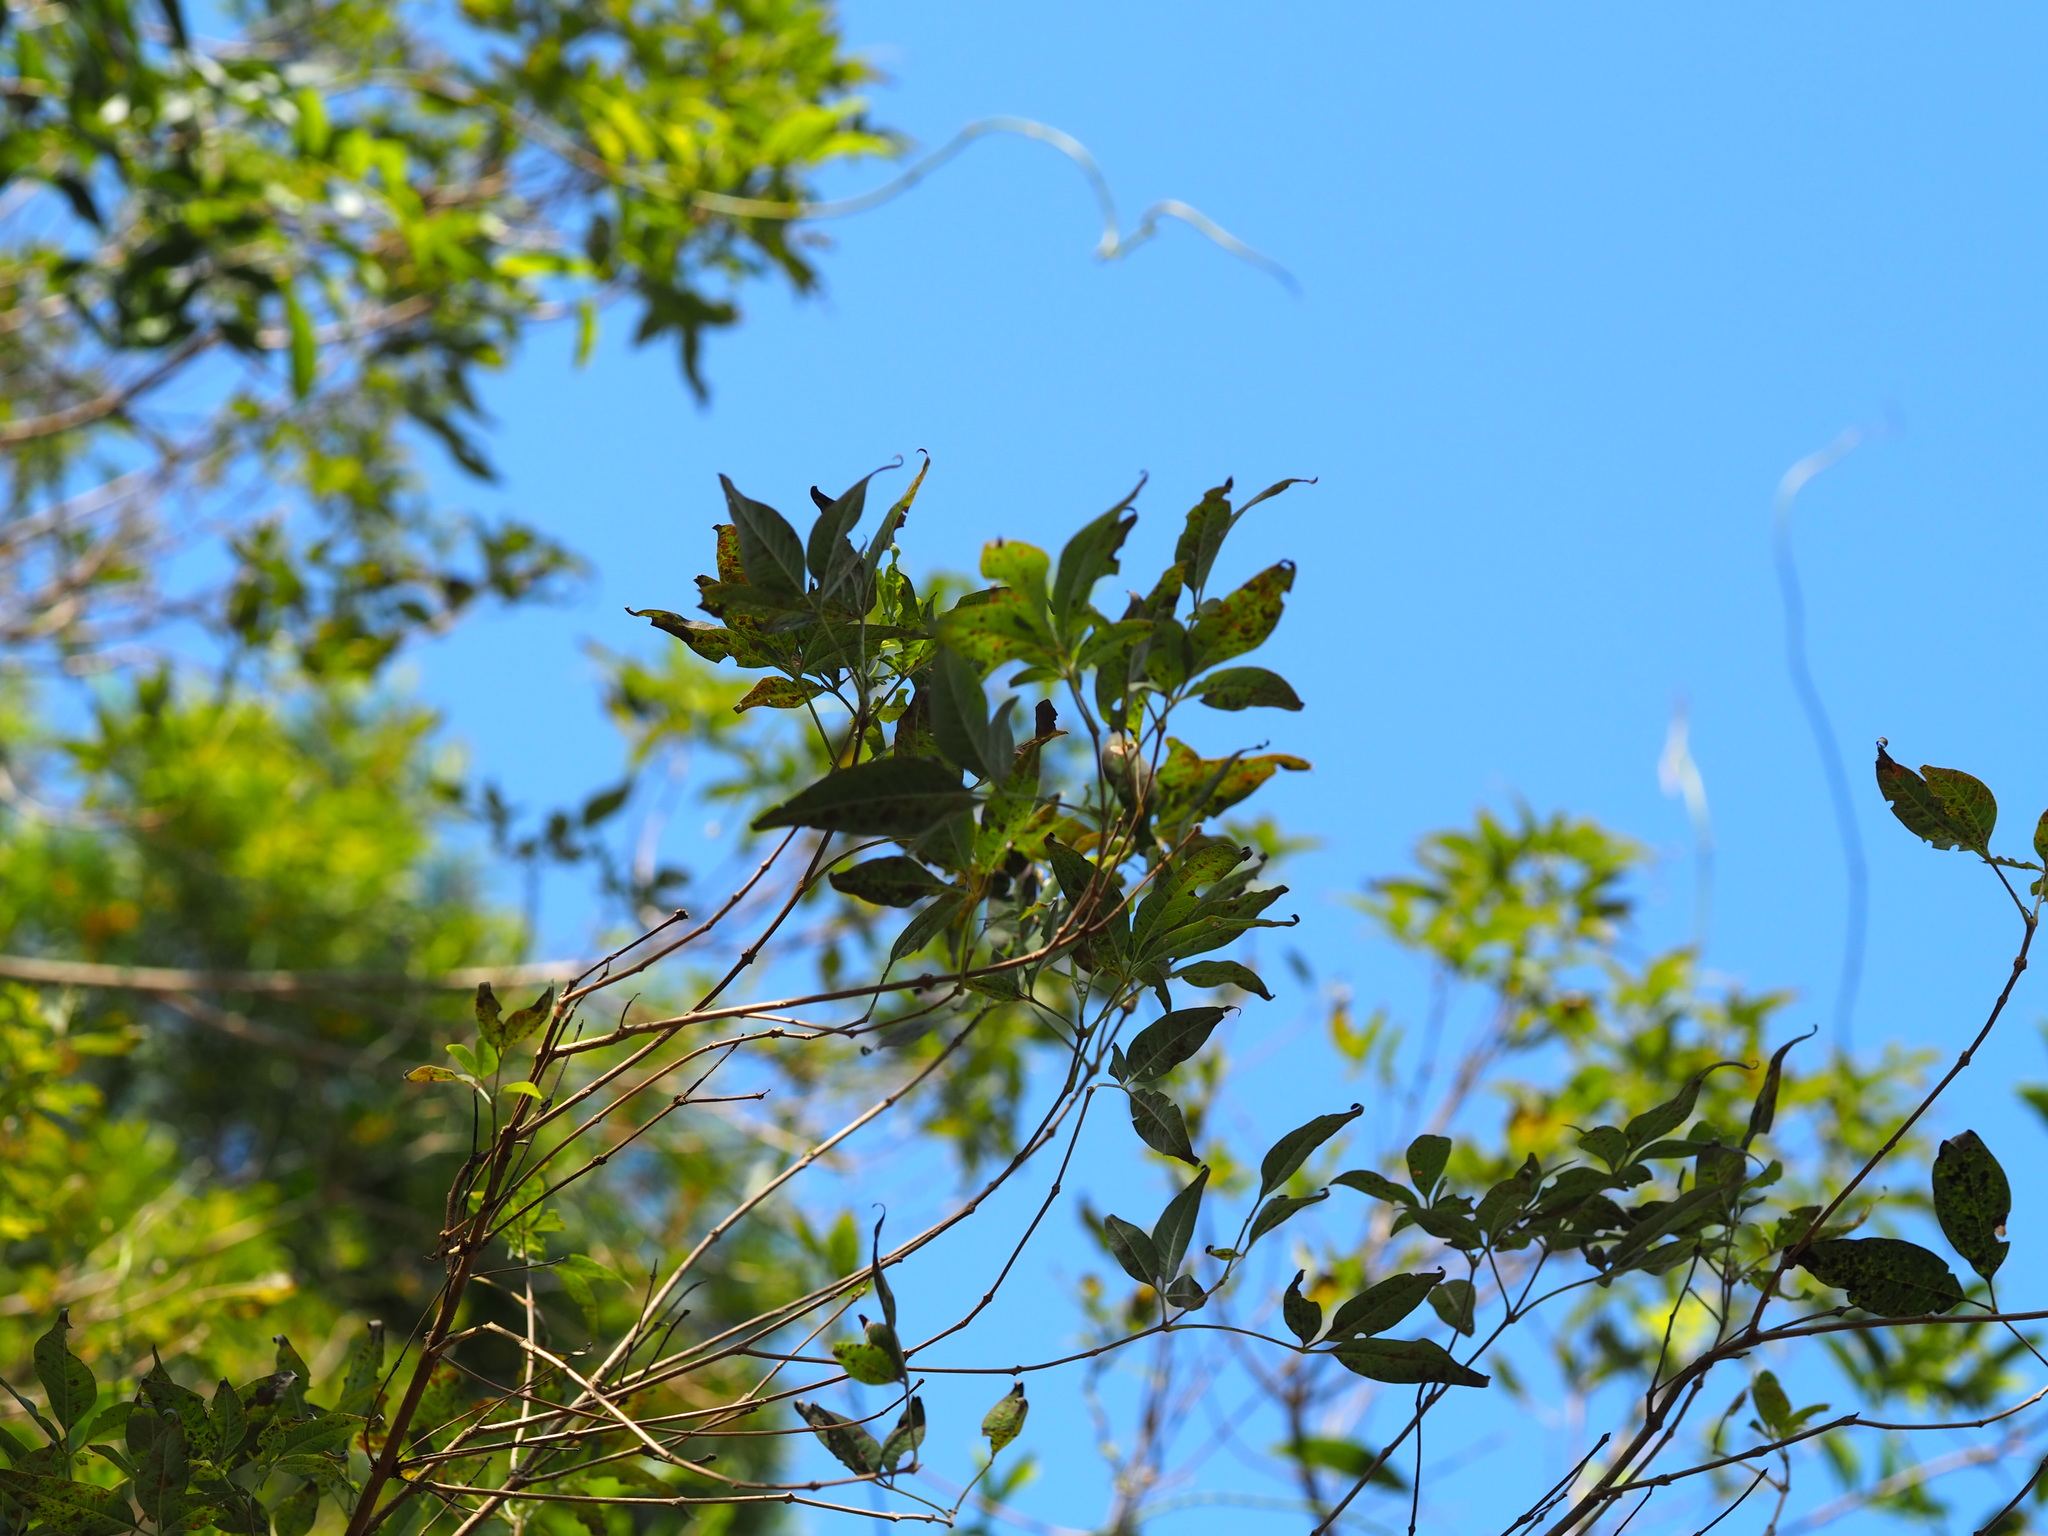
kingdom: Plantae
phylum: Tracheophyta
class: Magnoliopsida
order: Lamiales
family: Lamiaceae
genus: Vitex
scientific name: Vitex negundo
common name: Chinese chastetree
